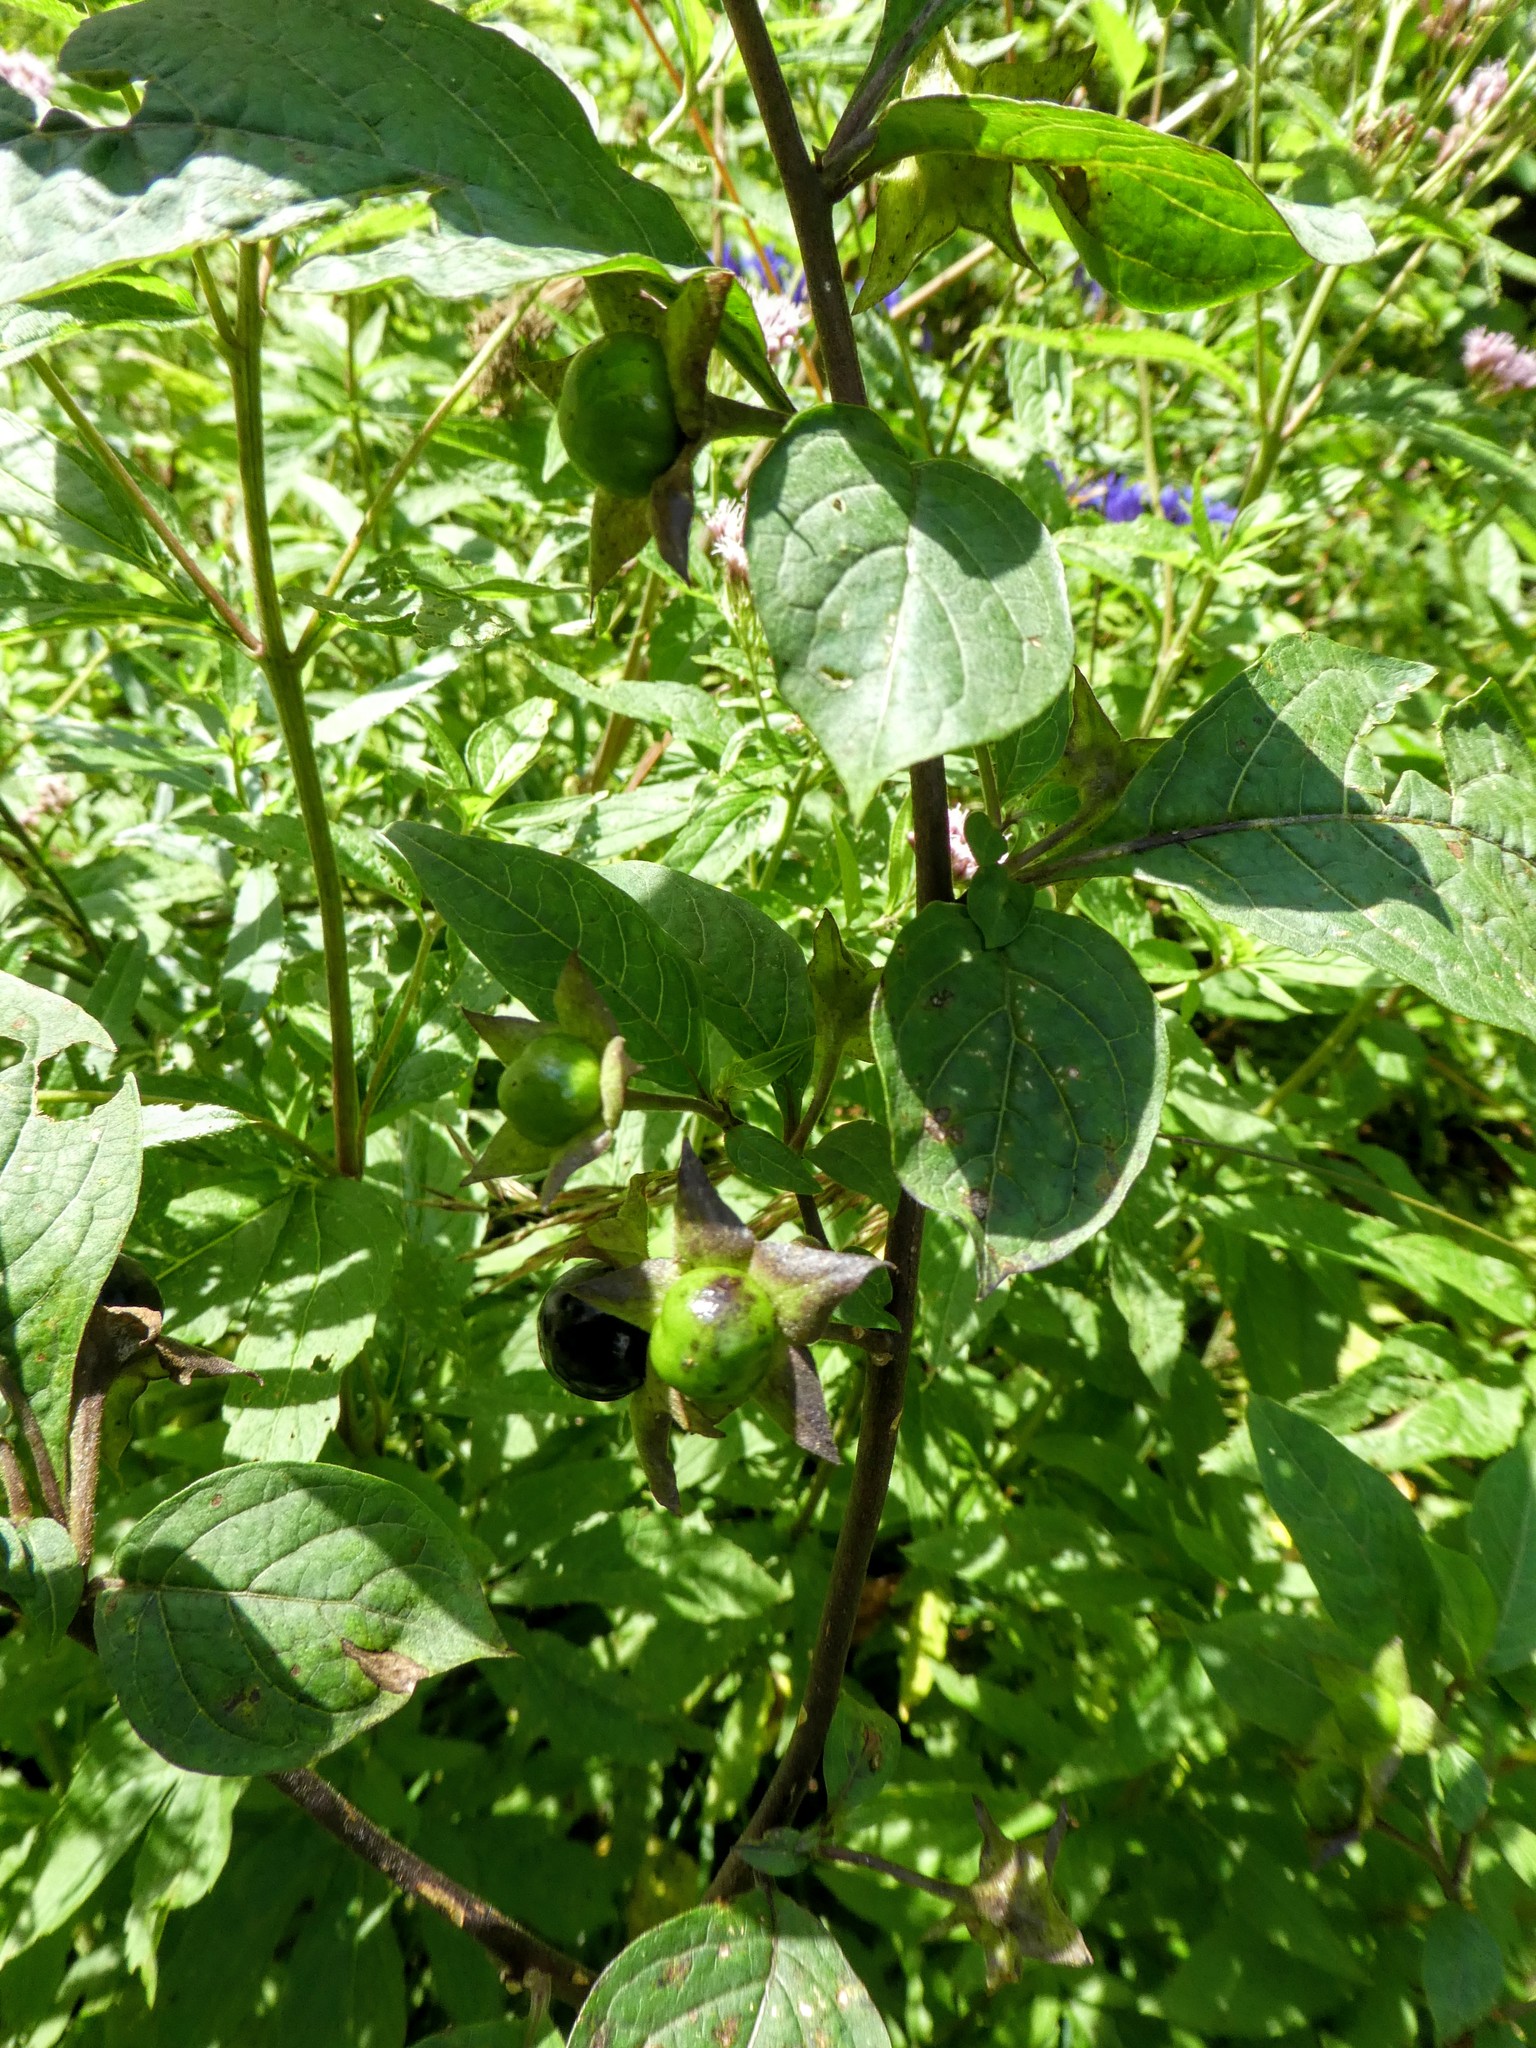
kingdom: Plantae
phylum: Tracheophyta
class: Magnoliopsida
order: Solanales
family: Solanaceae
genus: Atropa
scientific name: Atropa belladonna
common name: Deadly nightshade
